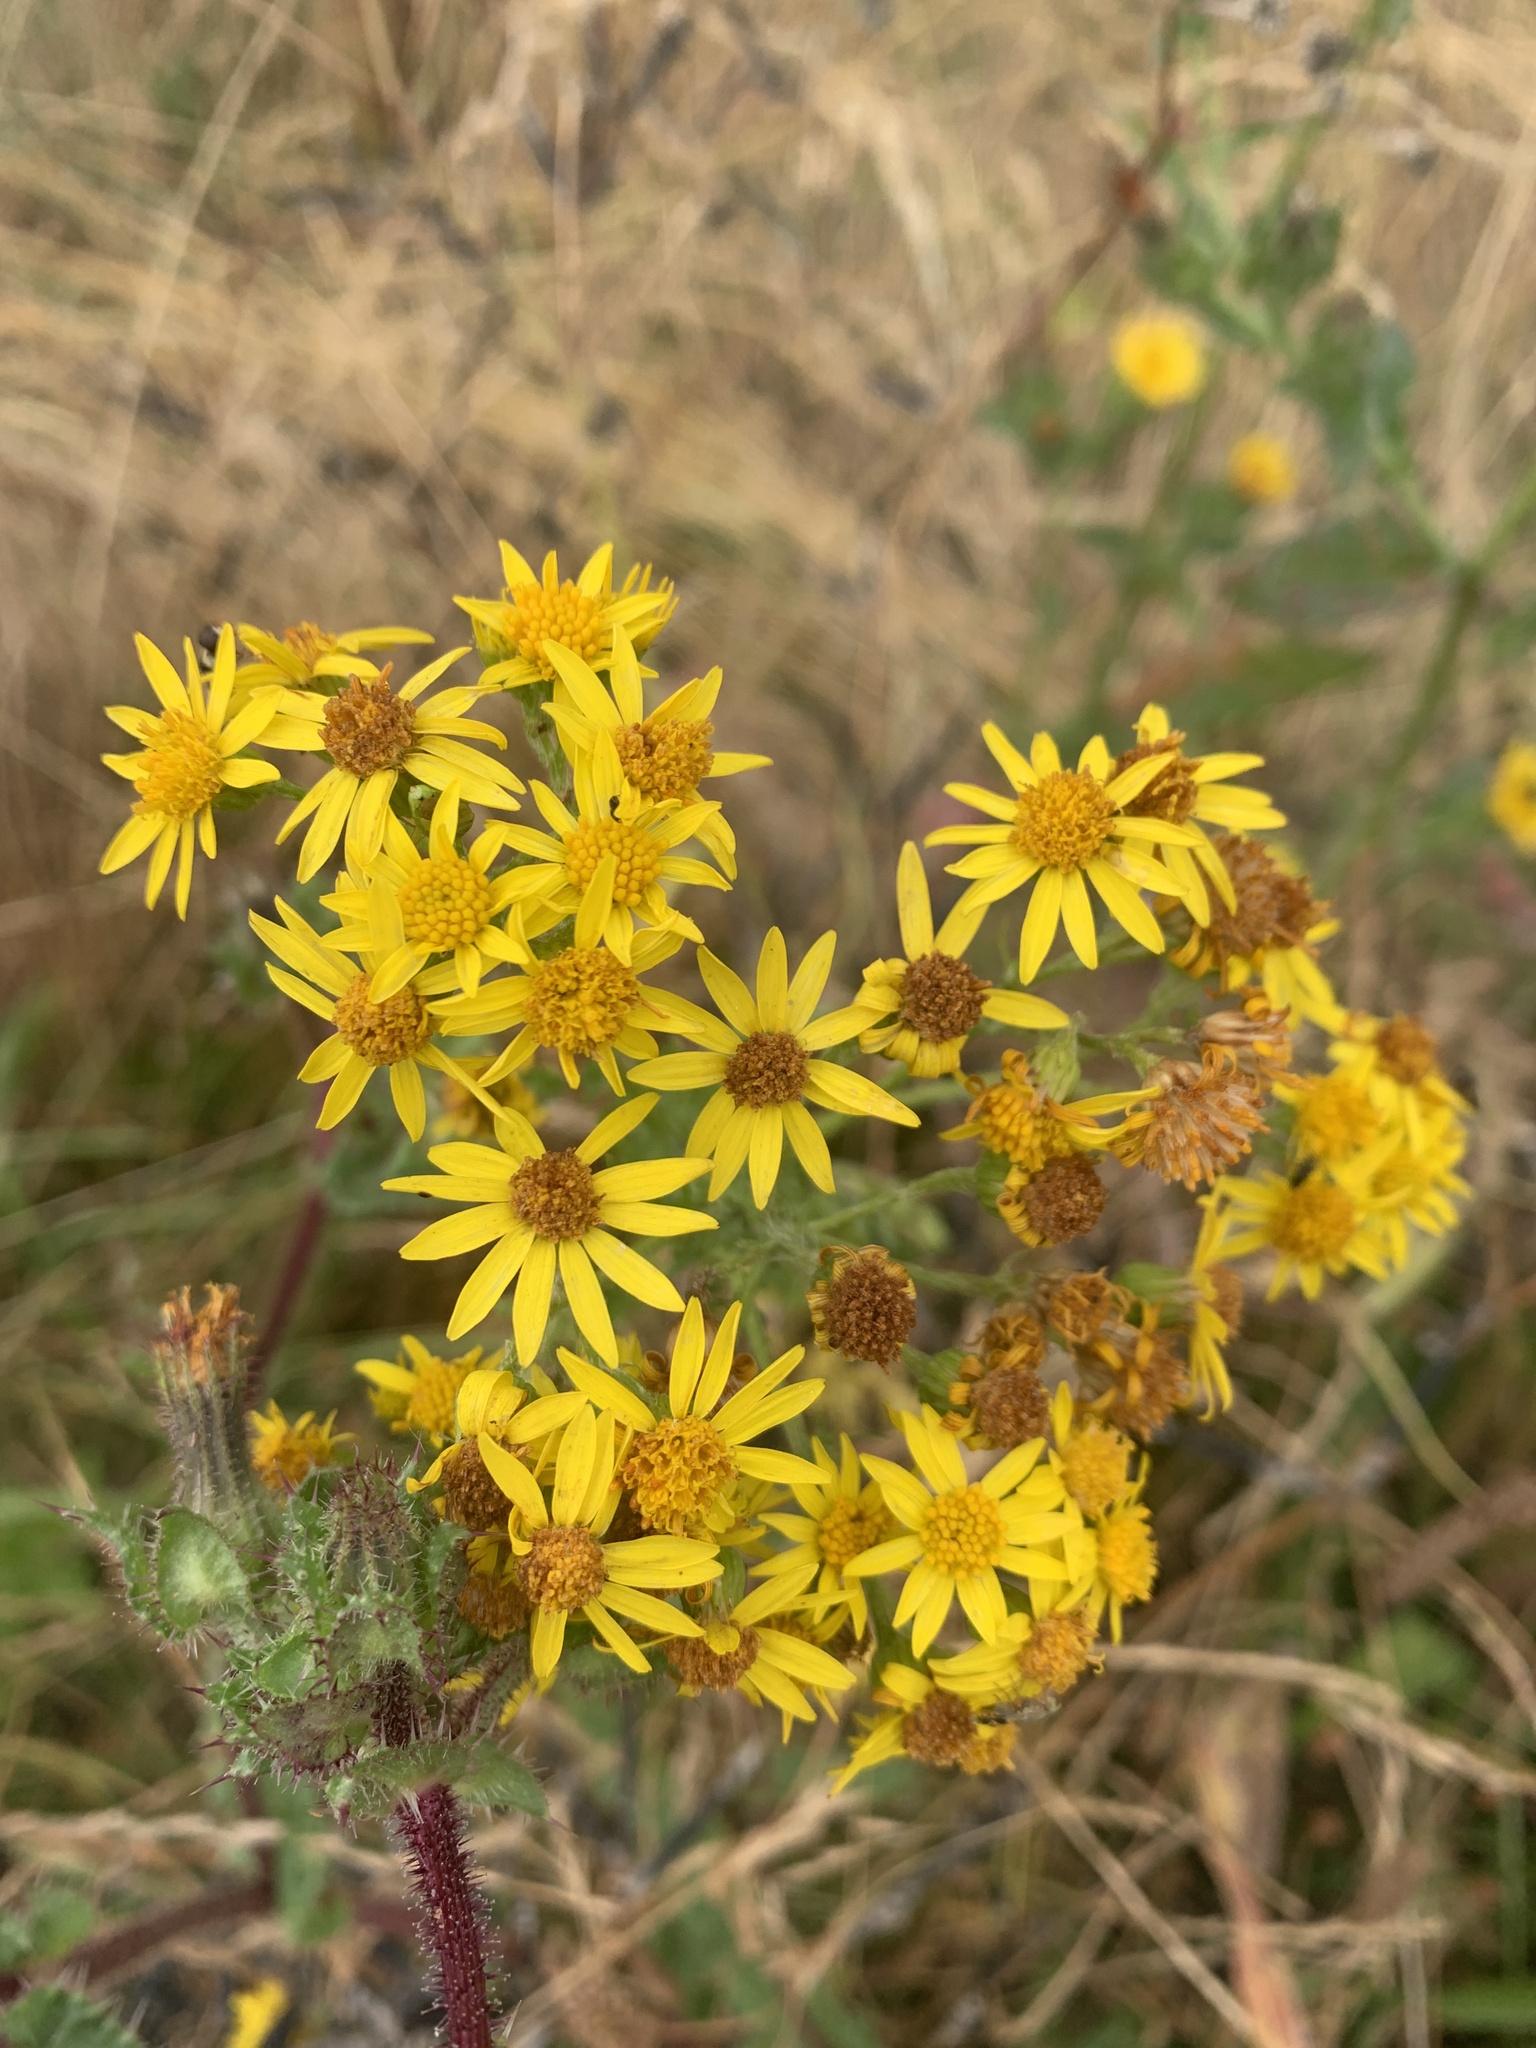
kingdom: Plantae
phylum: Tracheophyta
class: Magnoliopsida
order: Asterales
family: Asteraceae
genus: Jacobaea
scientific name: Jacobaea vulgaris
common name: Stinking willie
